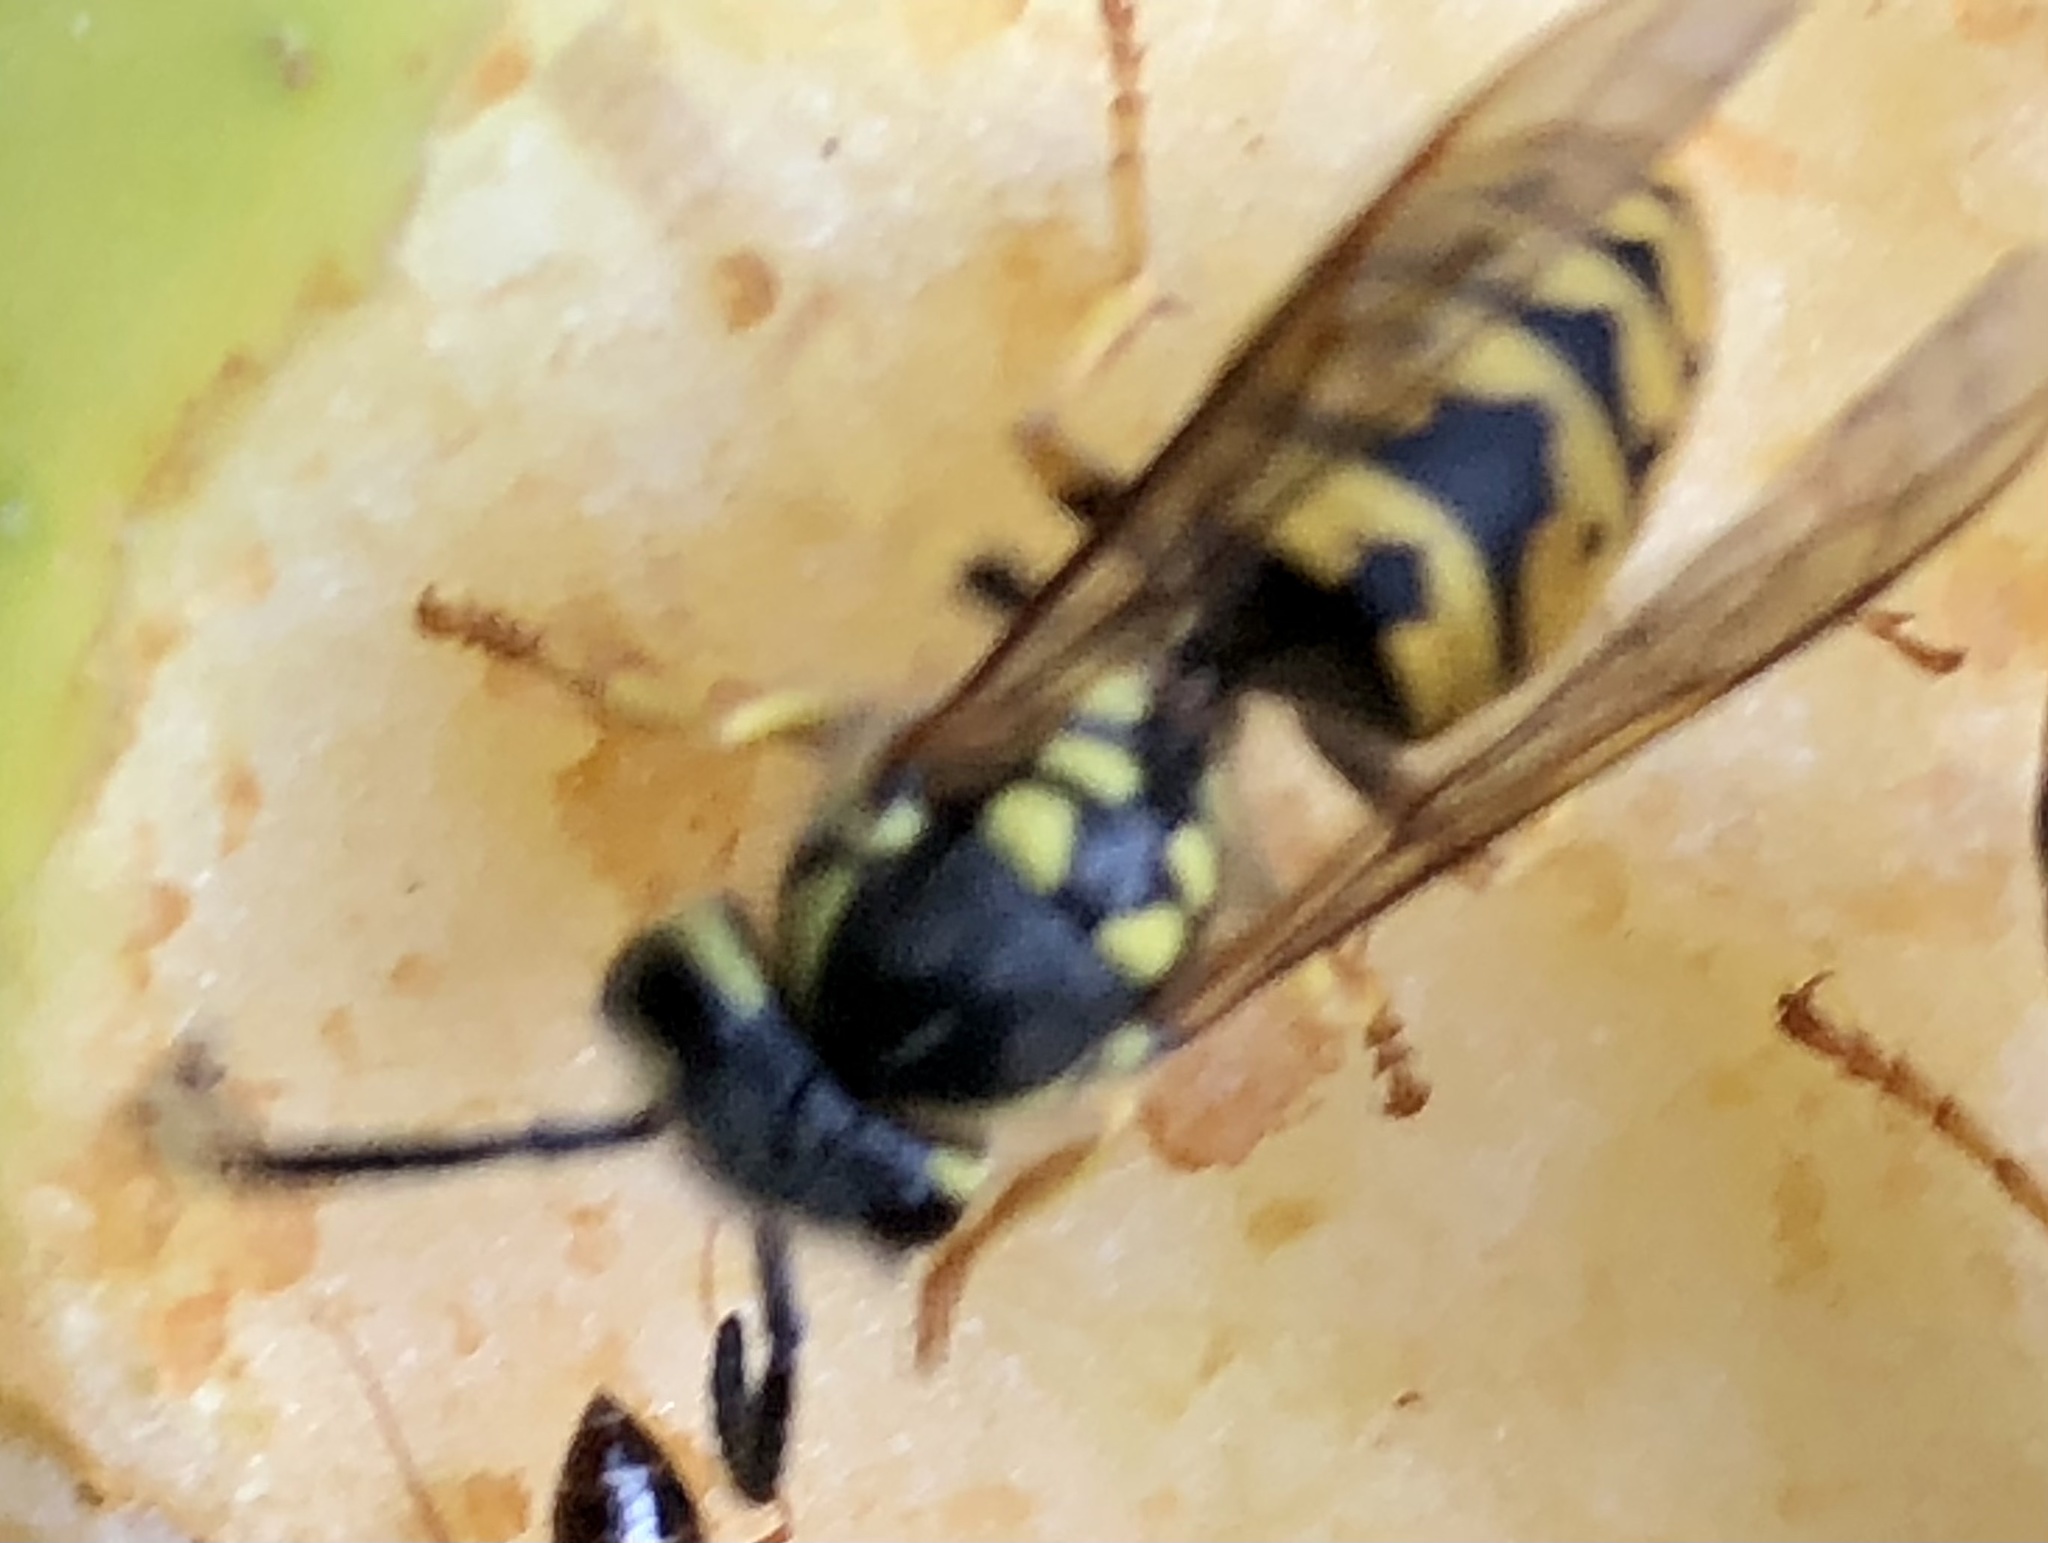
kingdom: Animalia
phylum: Arthropoda
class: Insecta
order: Hymenoptera
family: Vespidae
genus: Vespula
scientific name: Vespula germanica
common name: German wasp
